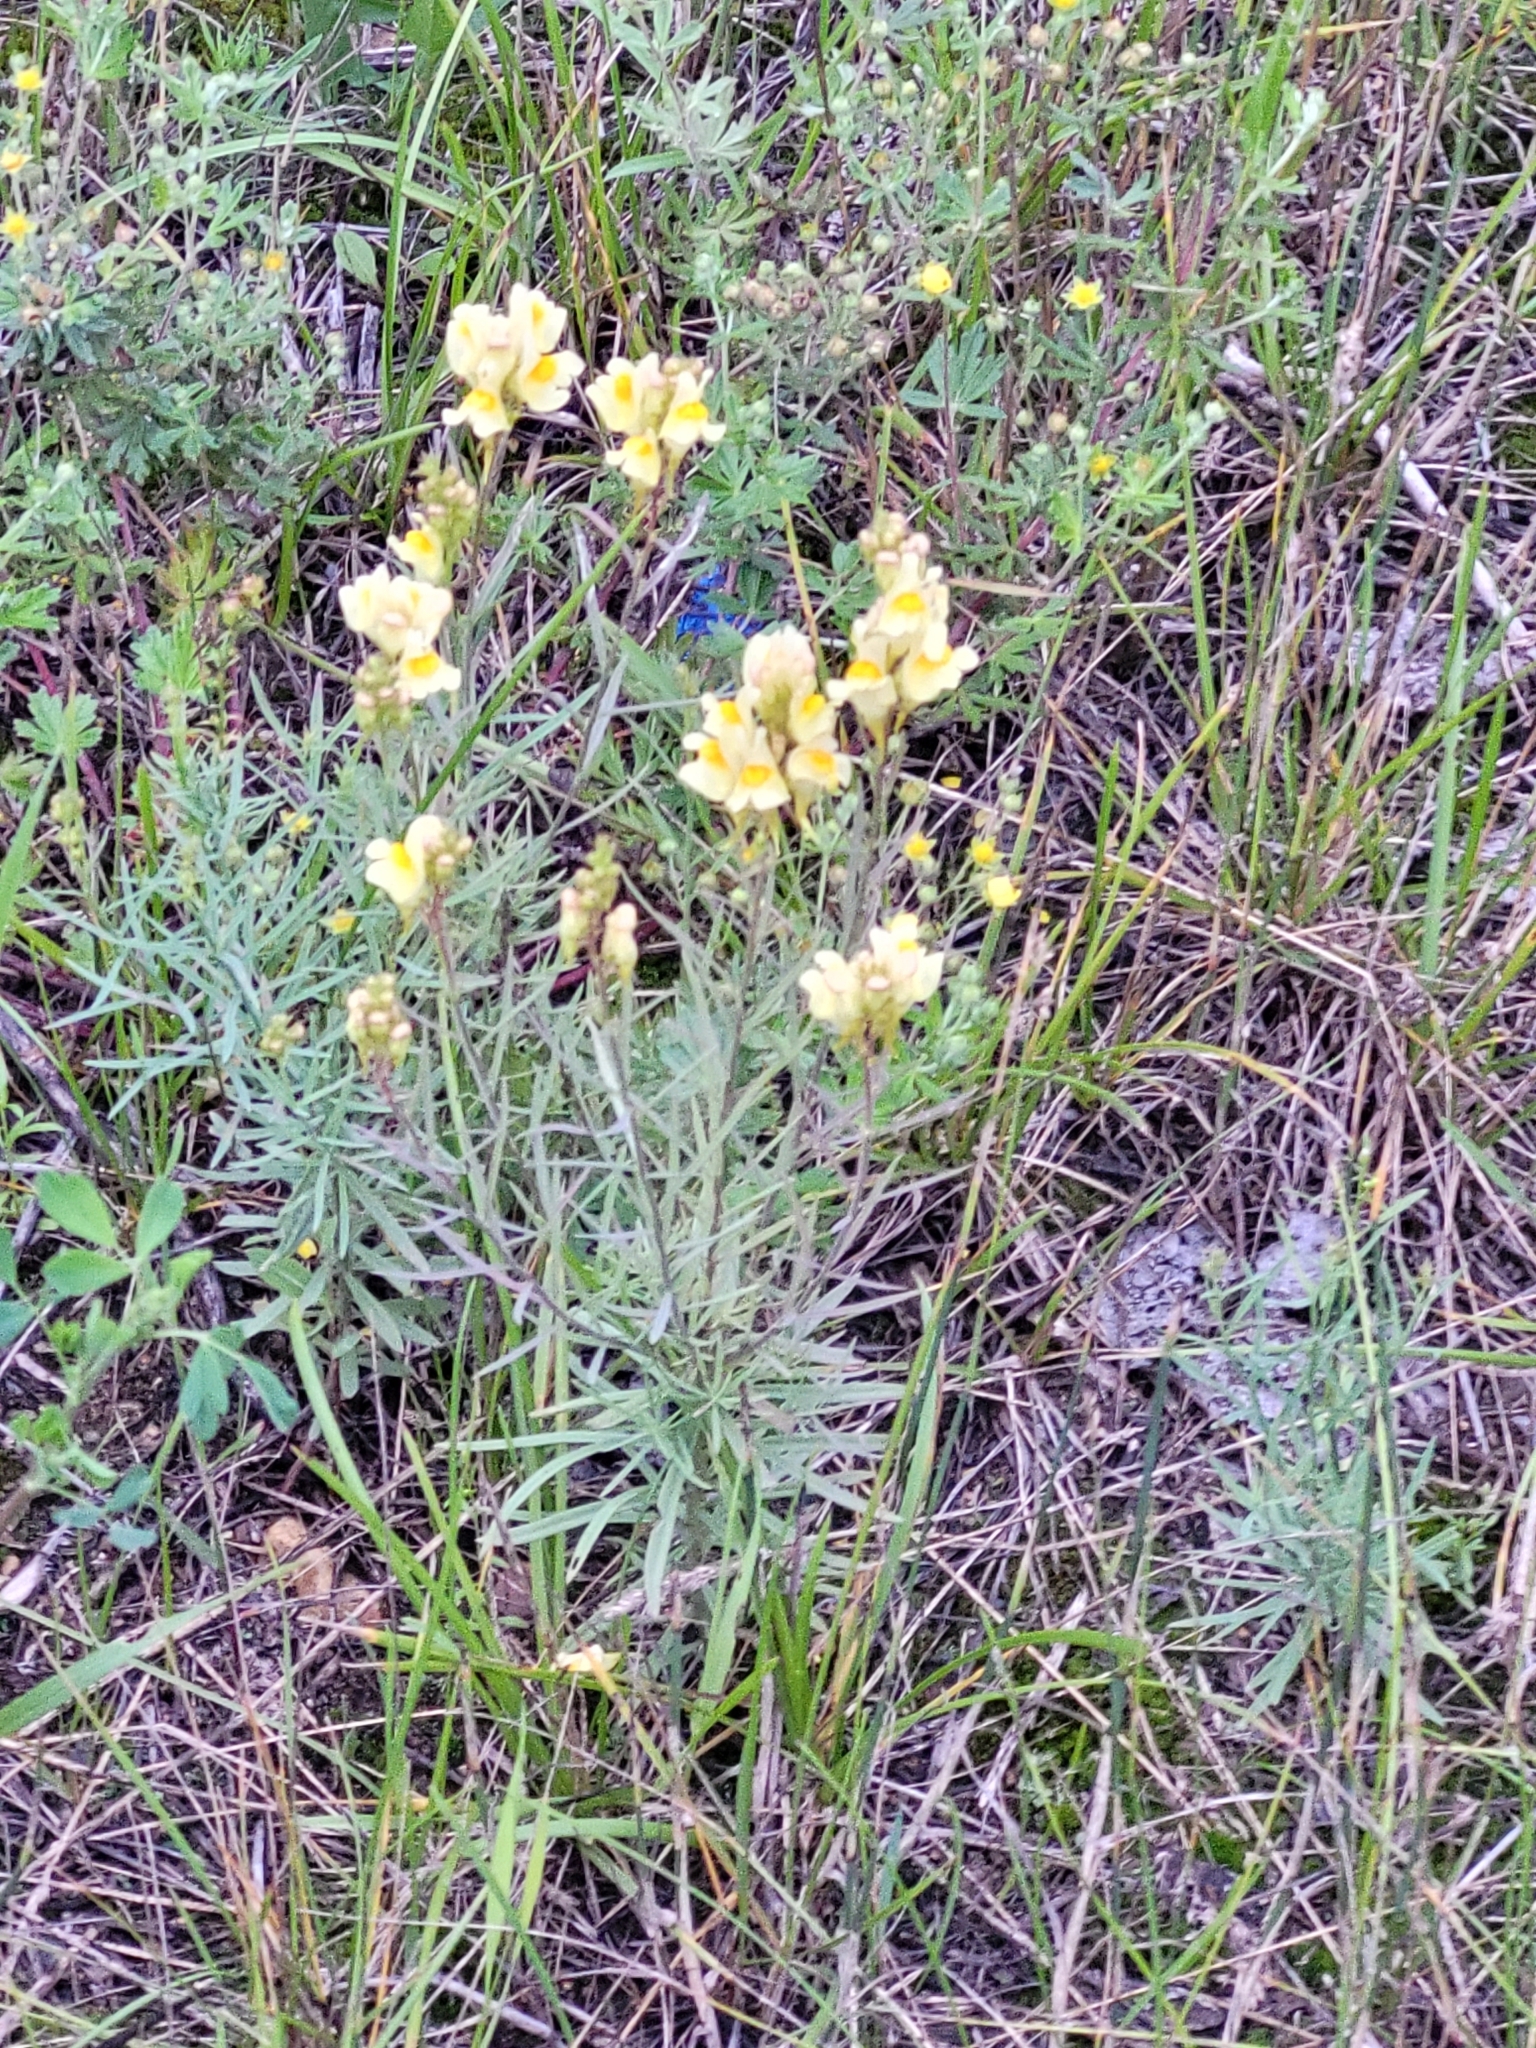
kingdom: Plantae
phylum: Tracheophyta
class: Magnoliopsida
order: Lamiales
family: Plantaginaceae
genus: Linaria
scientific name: Linaria vulgaris
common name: Butter and eggs
